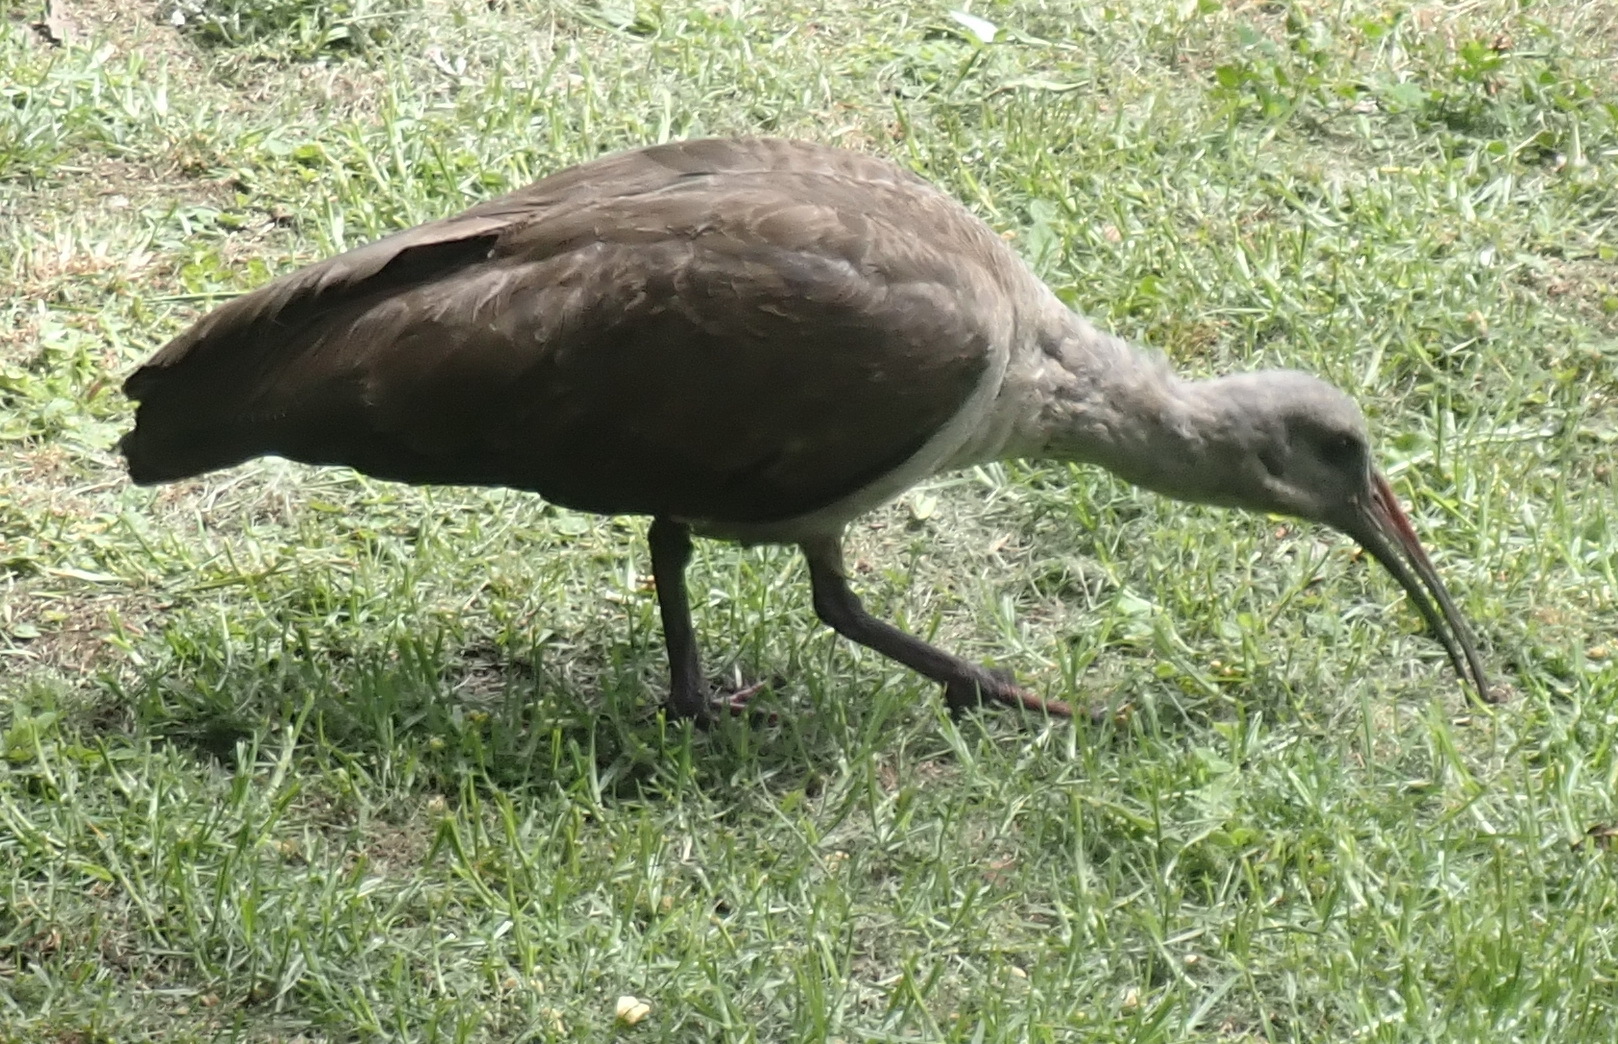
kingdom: Animalia
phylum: Chordata
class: Aves
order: Pelecaniformes
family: Threskiornithidae
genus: Bostrychia
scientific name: Bostrychia hagedash
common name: Hadada ibis
